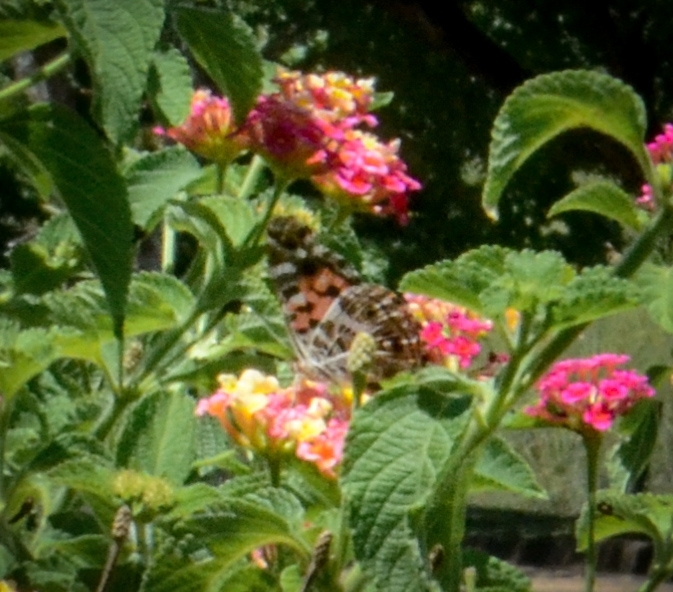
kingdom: Animalia
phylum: Arthropoda
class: Insecta
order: Lepidoptera
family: Nymphalidae
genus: Vanessa
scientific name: Vanessa braziliensis
